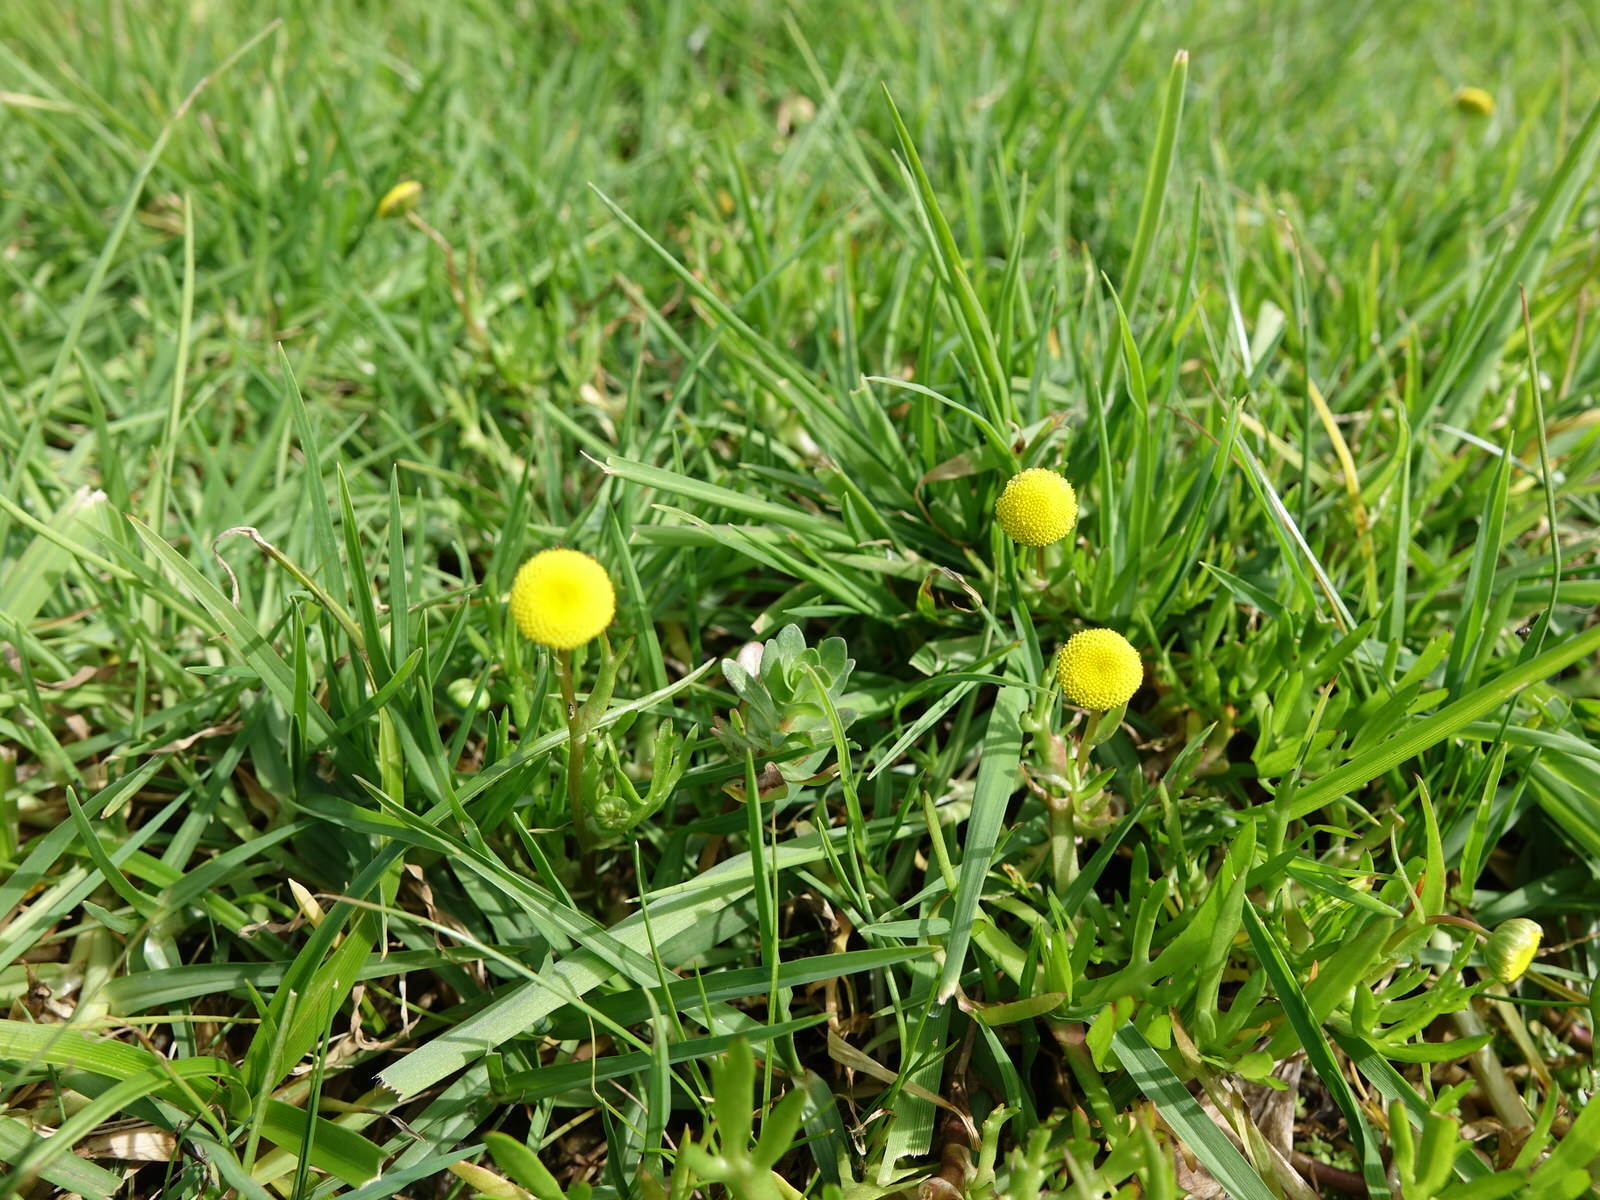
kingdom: Plantae
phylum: Tracheophyta
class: Magnoliopsida
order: Asterales
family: Asteraceae
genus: Cotula
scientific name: Cotula coronopifolia
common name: Buttonweed
